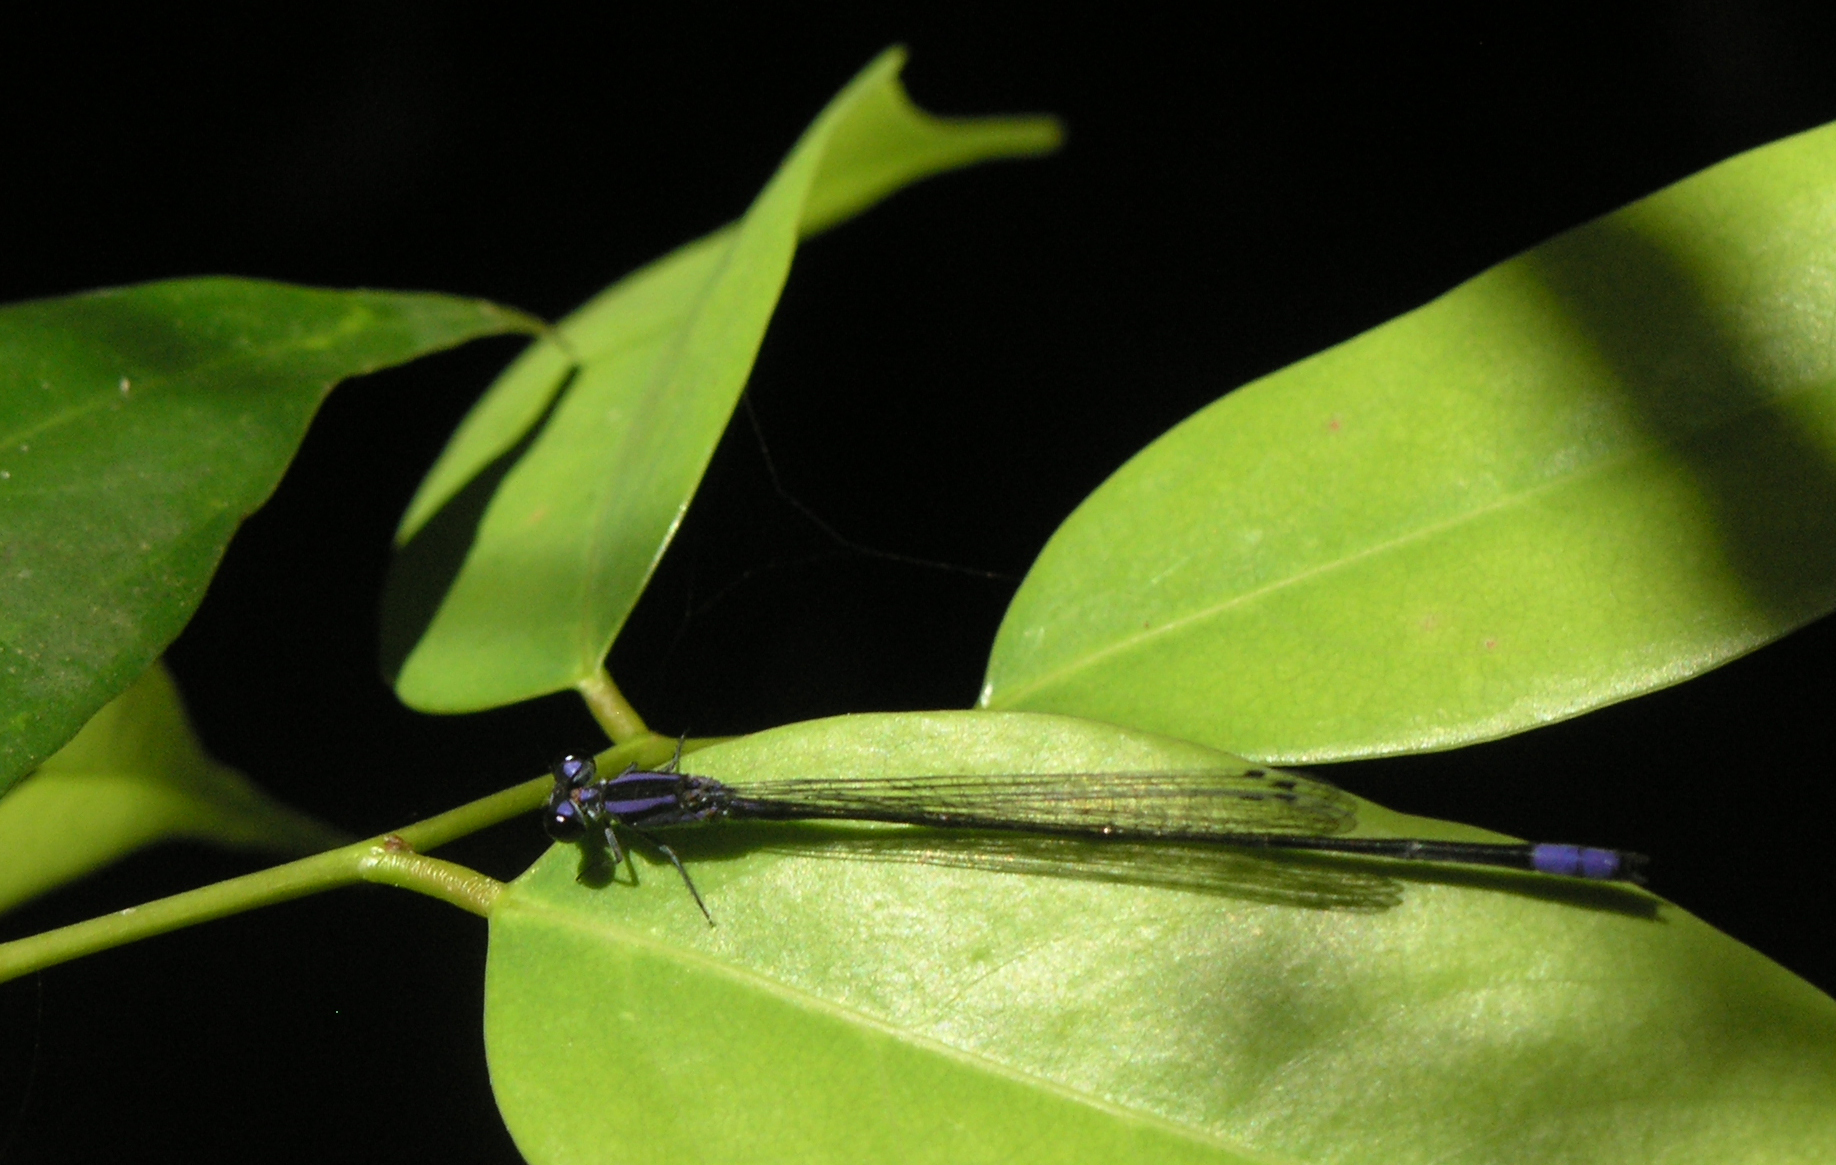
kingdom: Animalia
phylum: Arthropoda
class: Insecta
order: Odonata
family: Coenagrionidae
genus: Archibasis
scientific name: Archibasis viola
